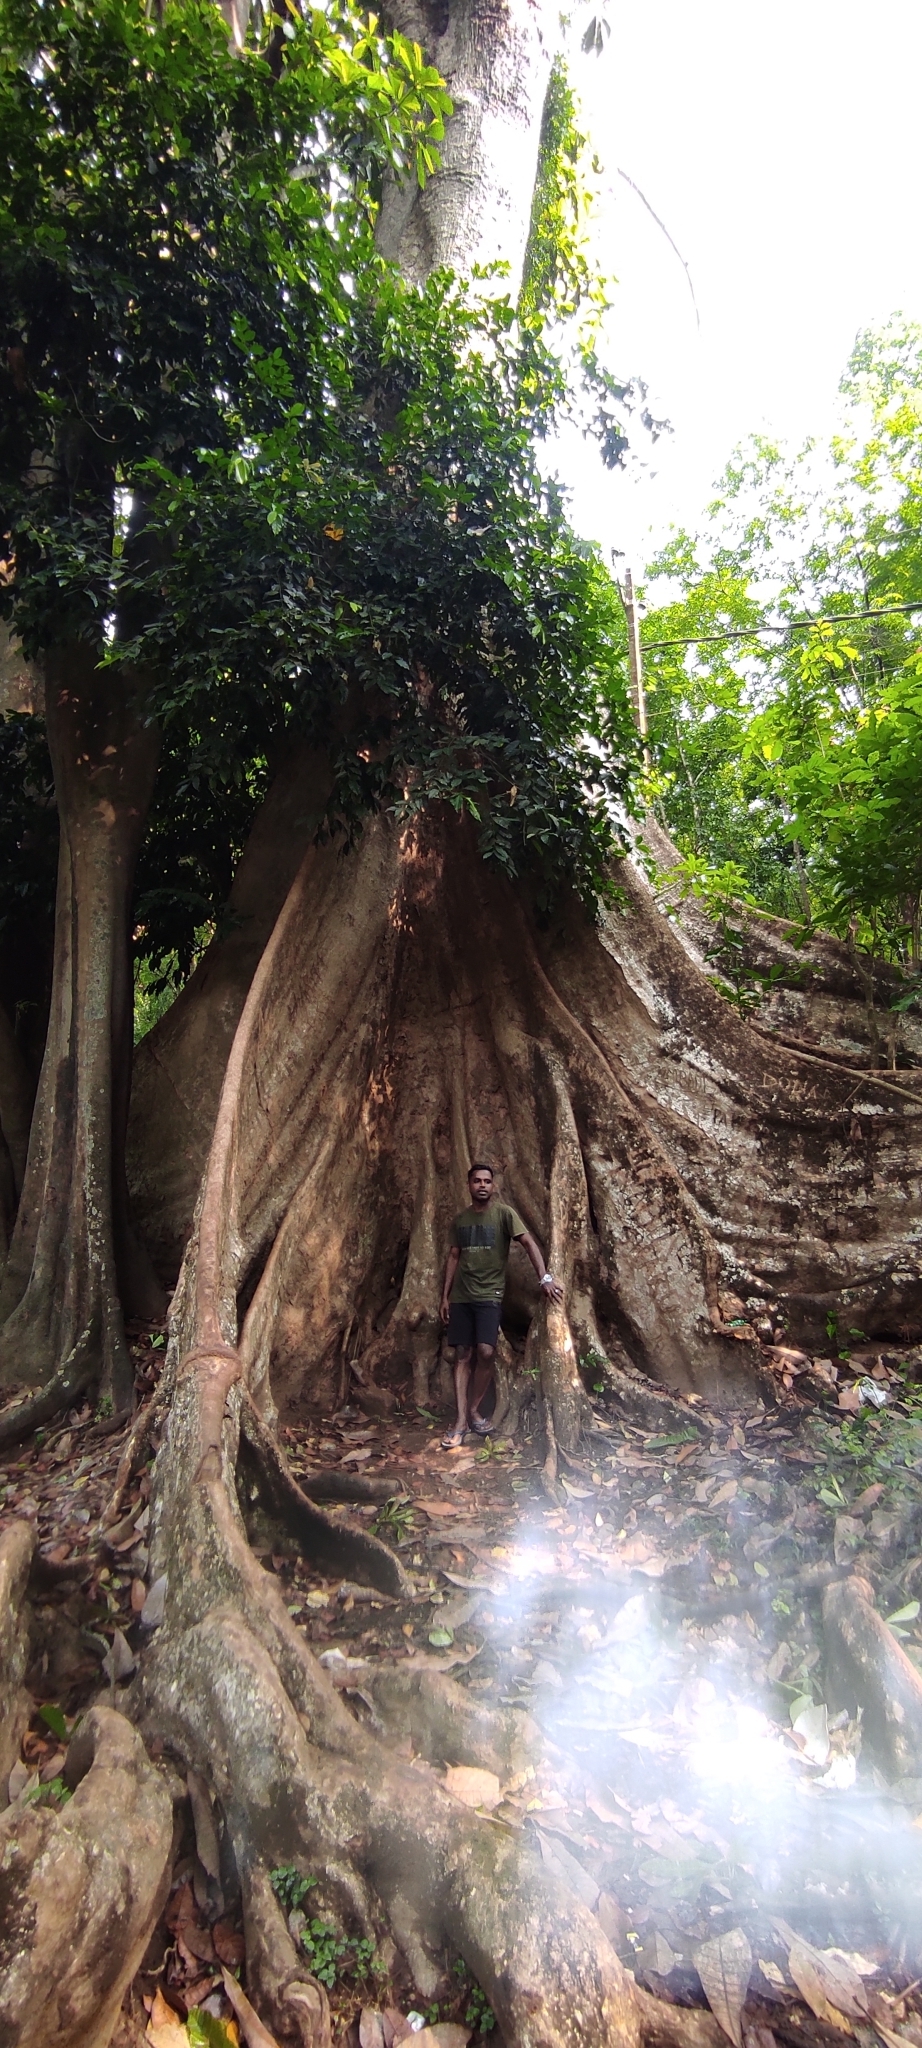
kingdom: Plantae
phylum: Tracheophyta
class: Magnoliopsida
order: Cucurbitales
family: Tetramelaceae
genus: Tetrameles
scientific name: Tetrameles nudiflora
